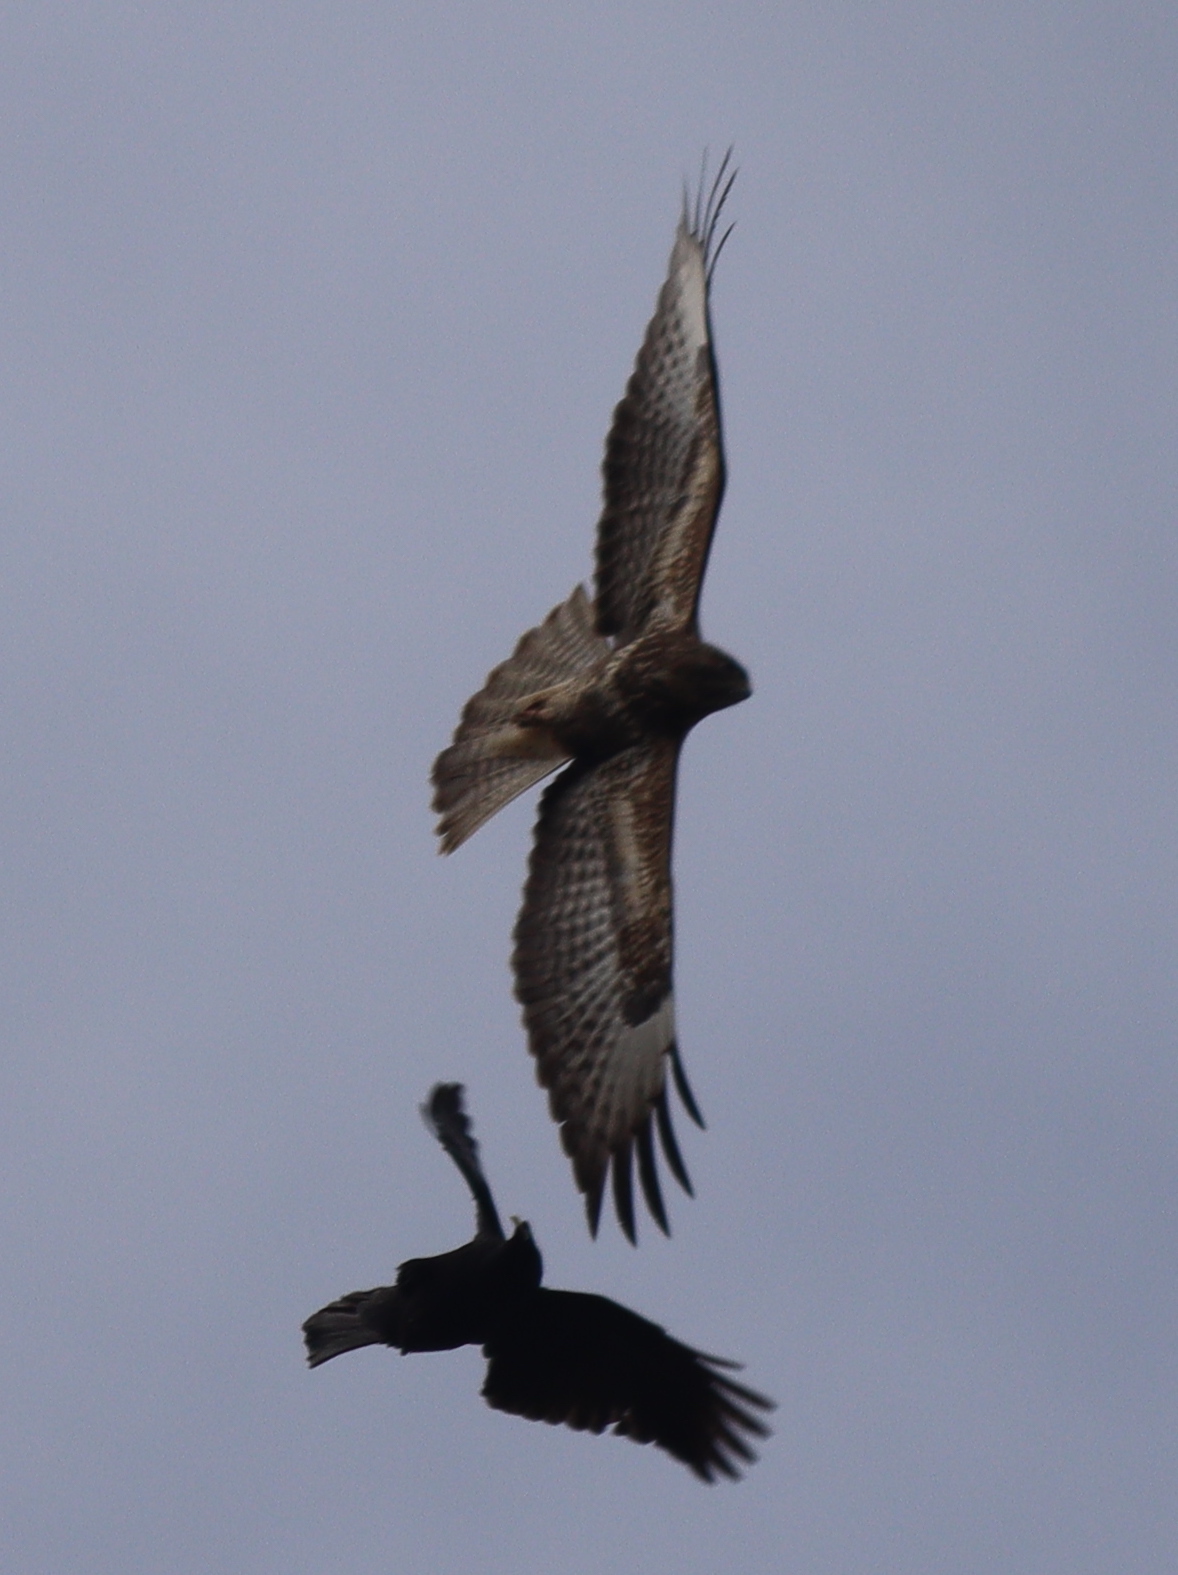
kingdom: Animalia
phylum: Chordata
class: Aves
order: Accipitriformes
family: Accipitridae
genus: Buteo
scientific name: Buteo buteo
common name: Common buzzard
